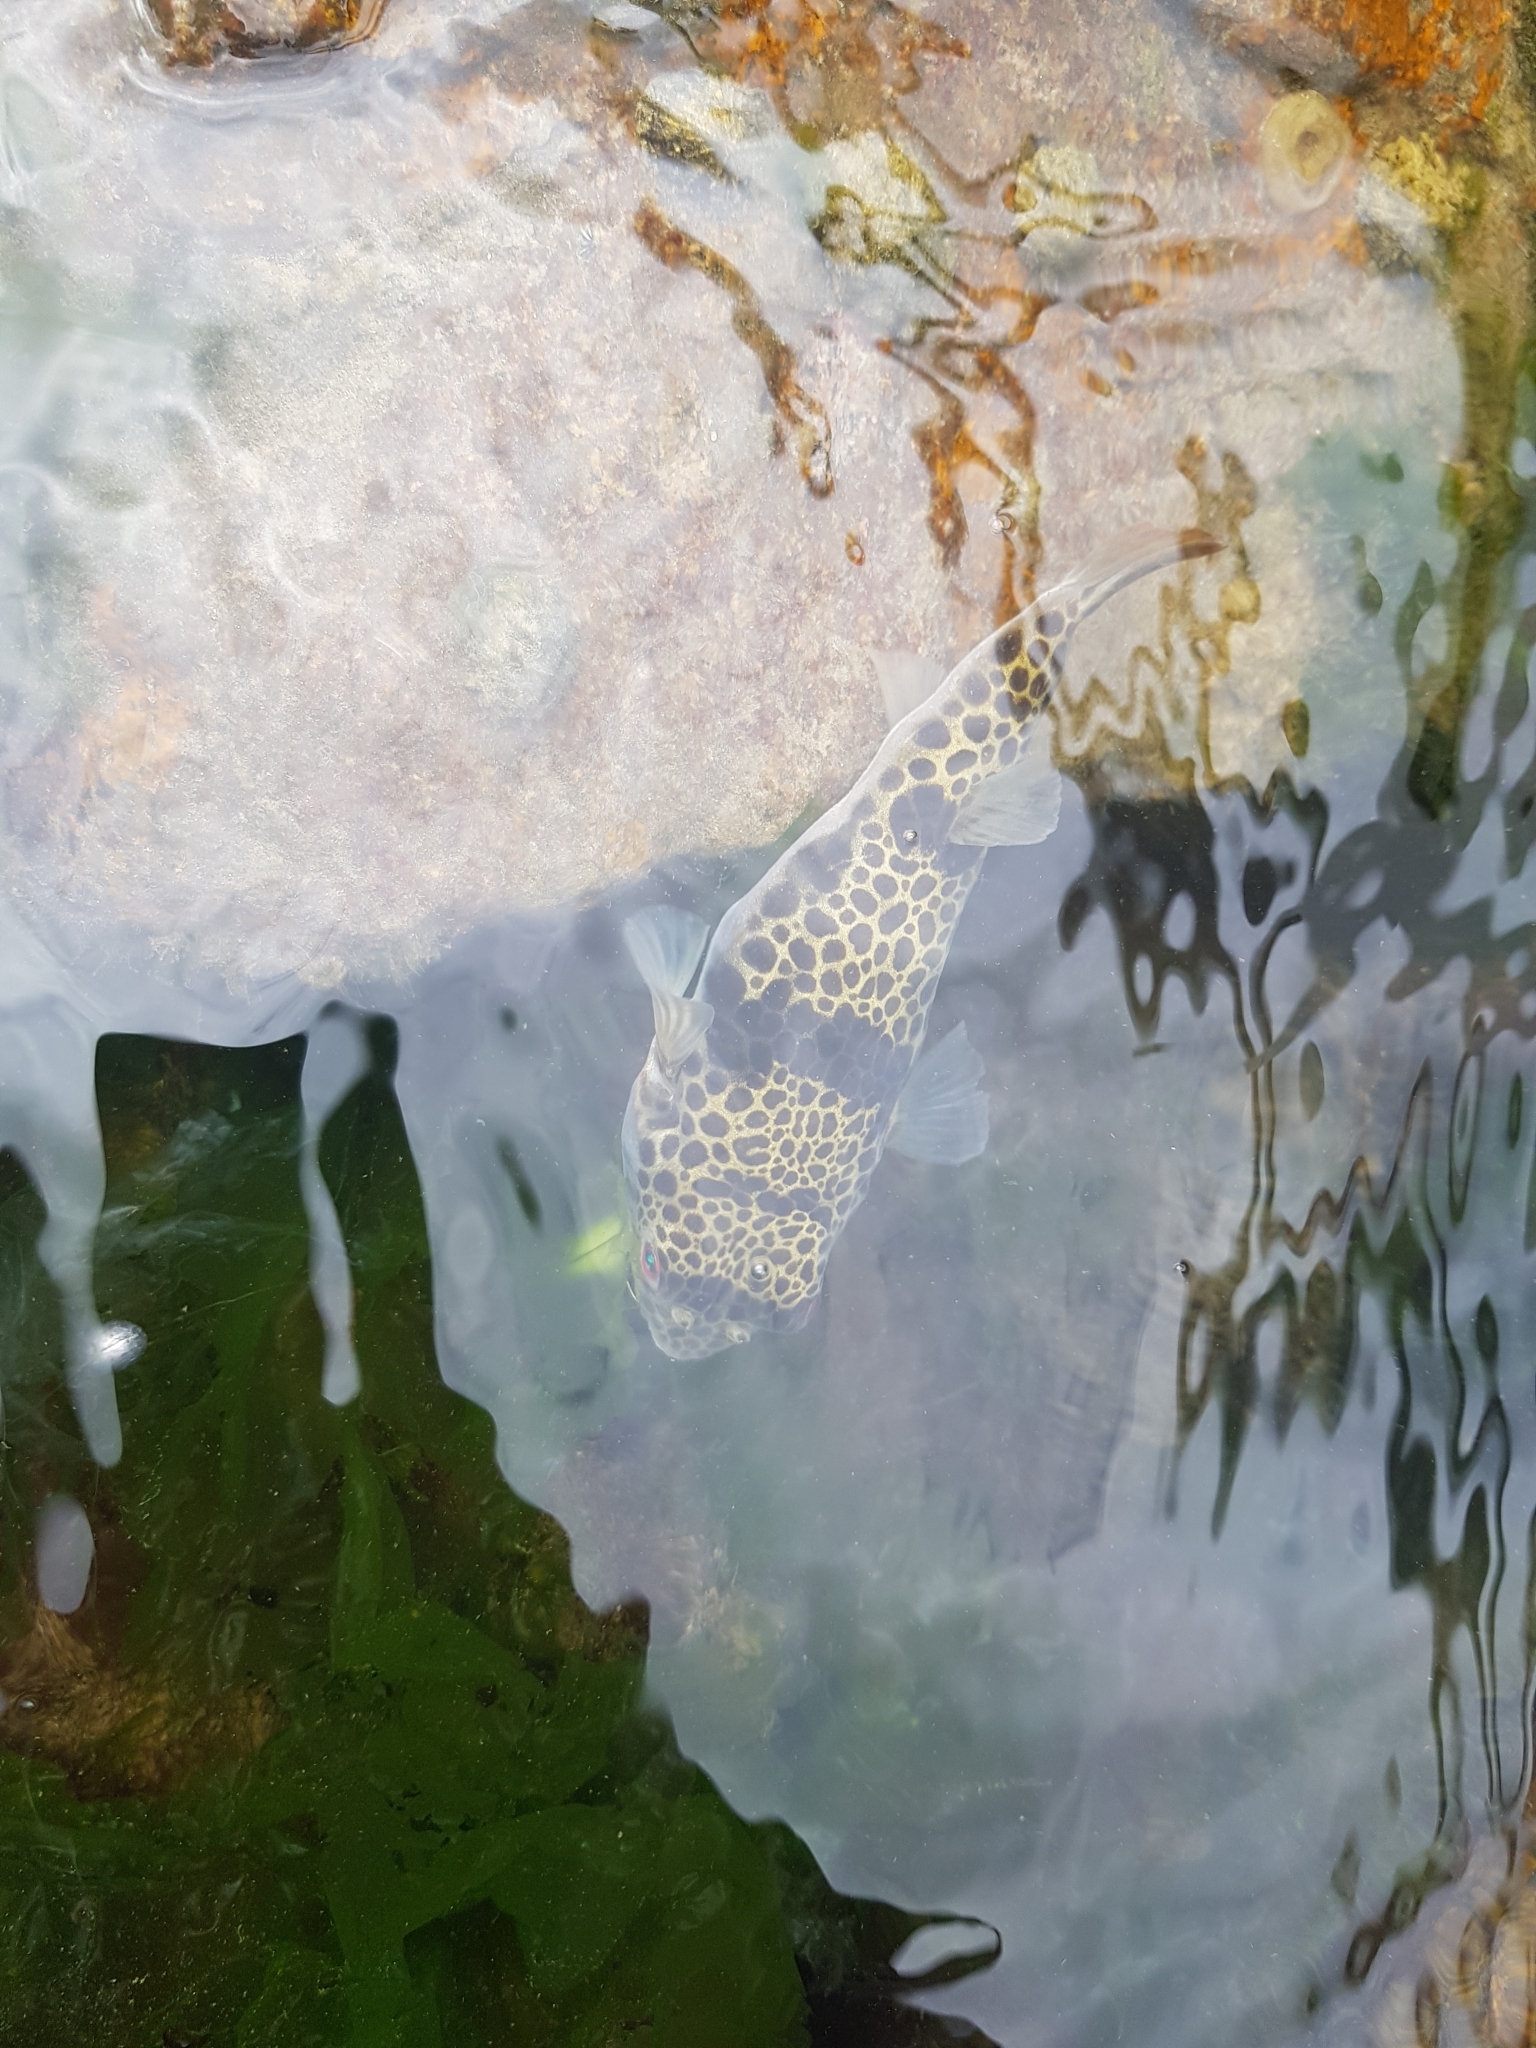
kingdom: Animalia
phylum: Chordata
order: Tetraodontiformes
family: Tetraodontidae
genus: Tetractenos
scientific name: Tetractenos glaber
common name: Smooth toadfish
